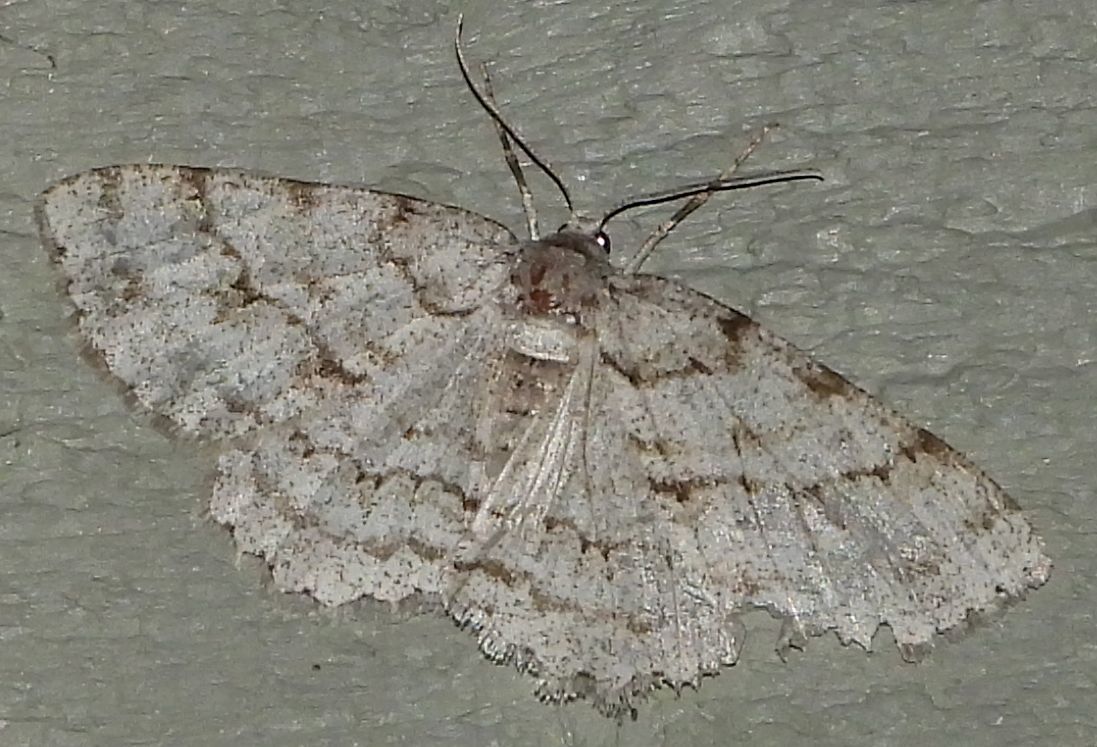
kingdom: Animalia
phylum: Arthropoda
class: Insecta
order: Lepidoptera
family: Geometridae
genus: Ectropis
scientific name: Ectropis crepuscularia
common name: Engrailed
